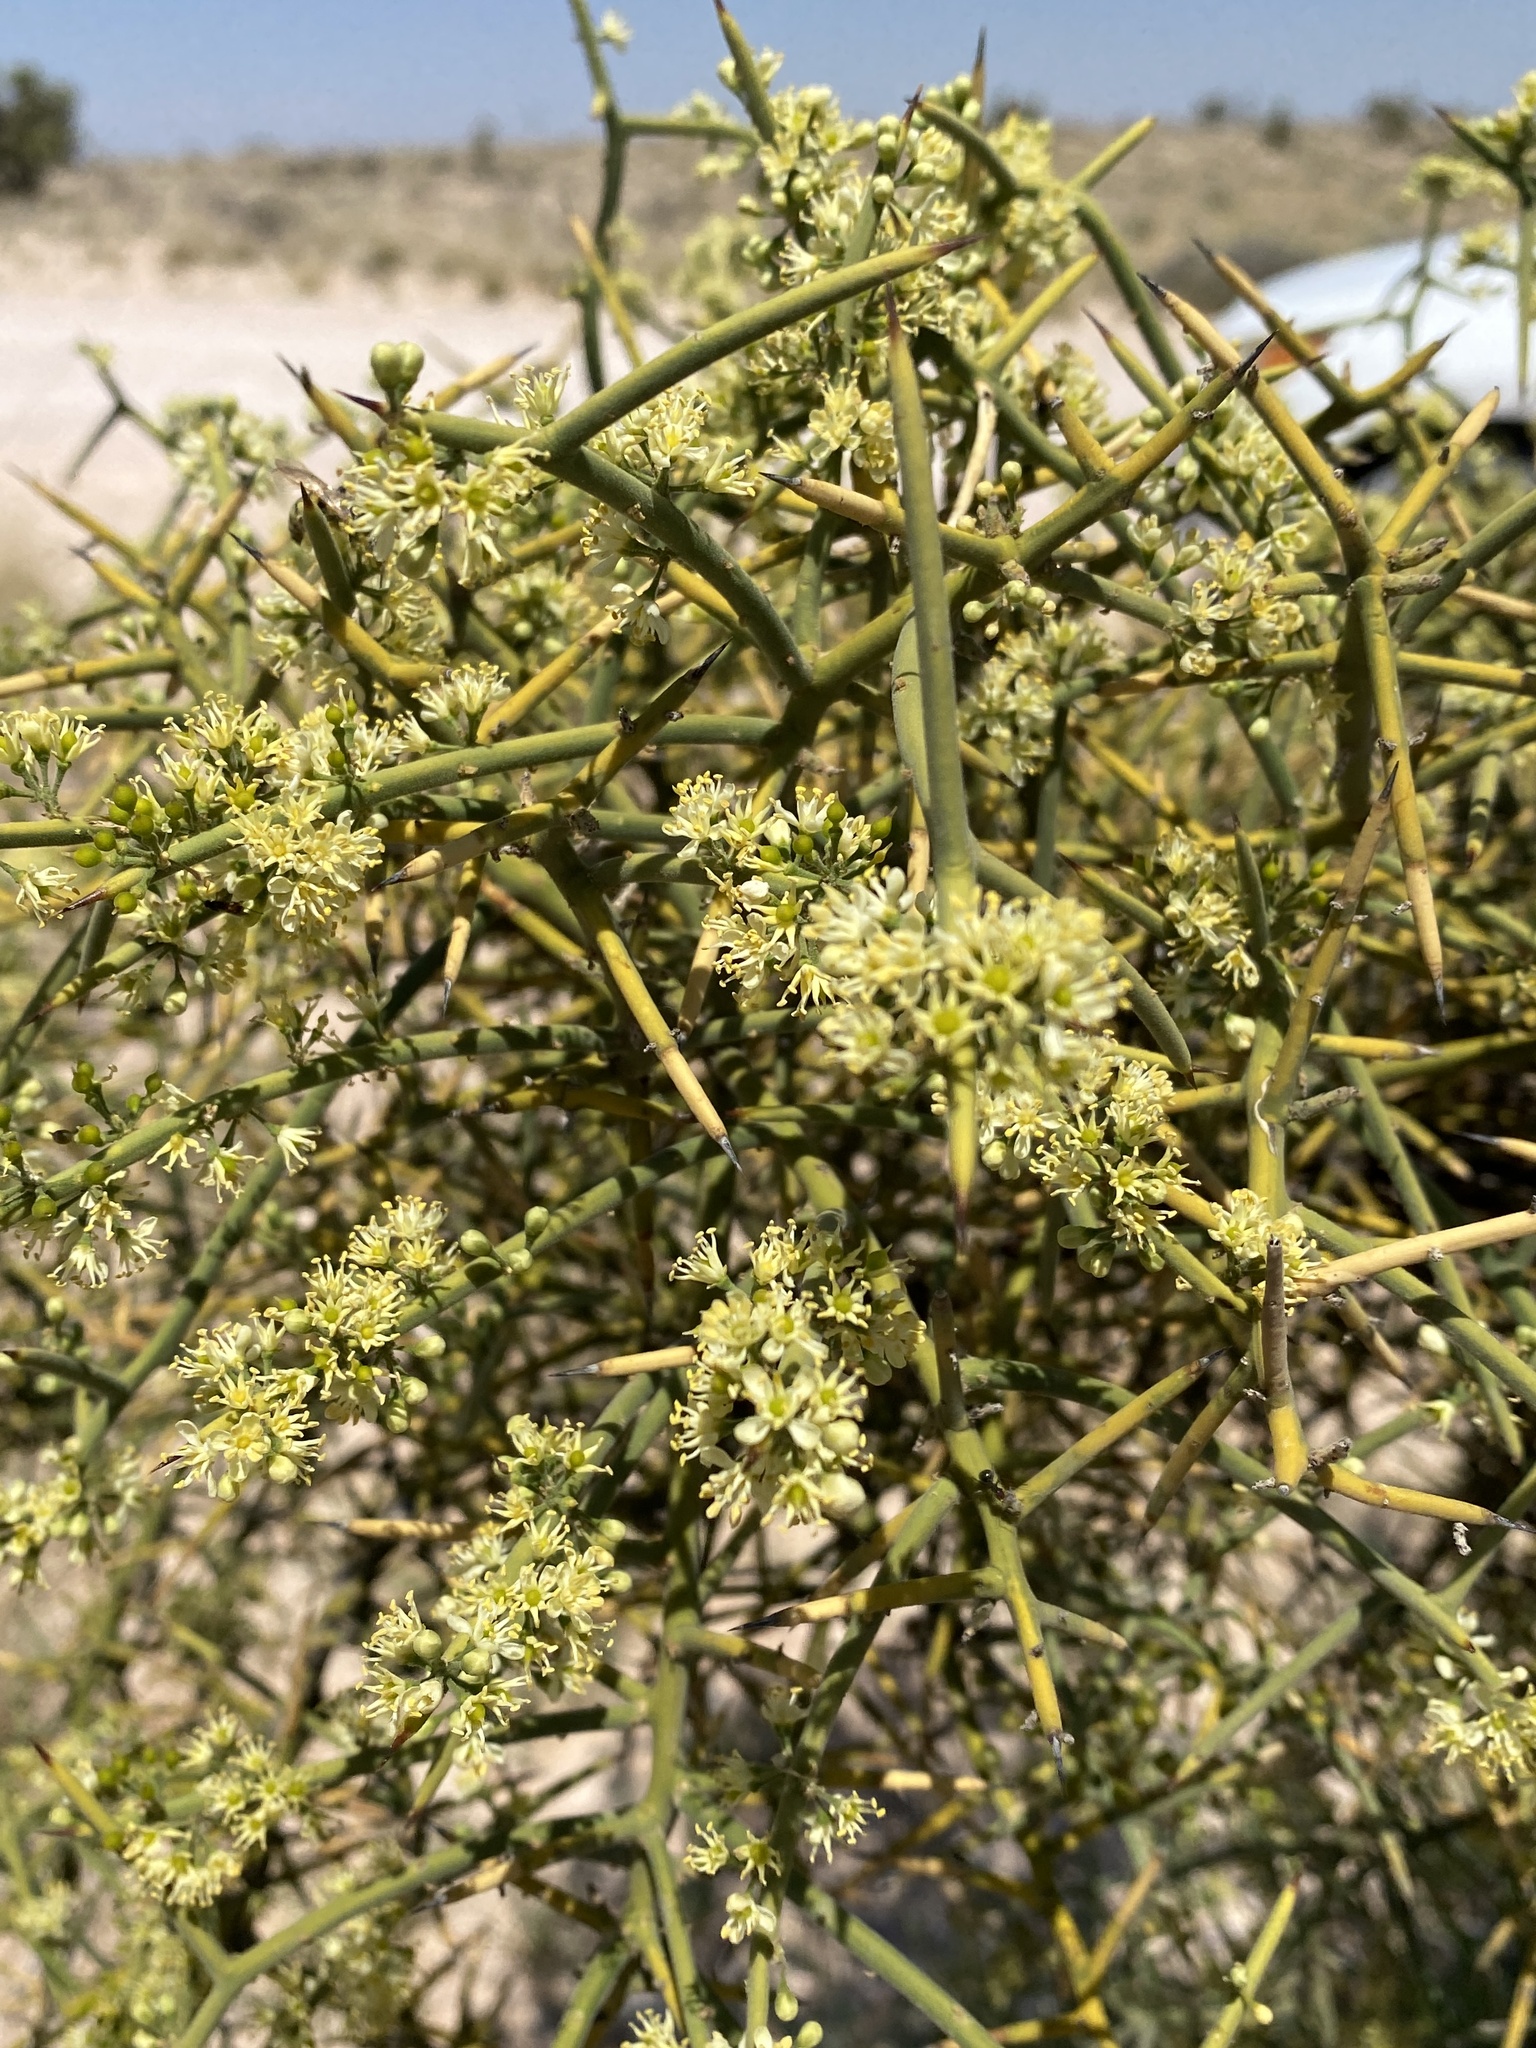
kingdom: Plantae
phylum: Tracheophyta
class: Magnoliopsida
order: Brassicales
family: Koeberliniaceae
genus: Koeberlinia
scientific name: Koeberlinia spinosa
